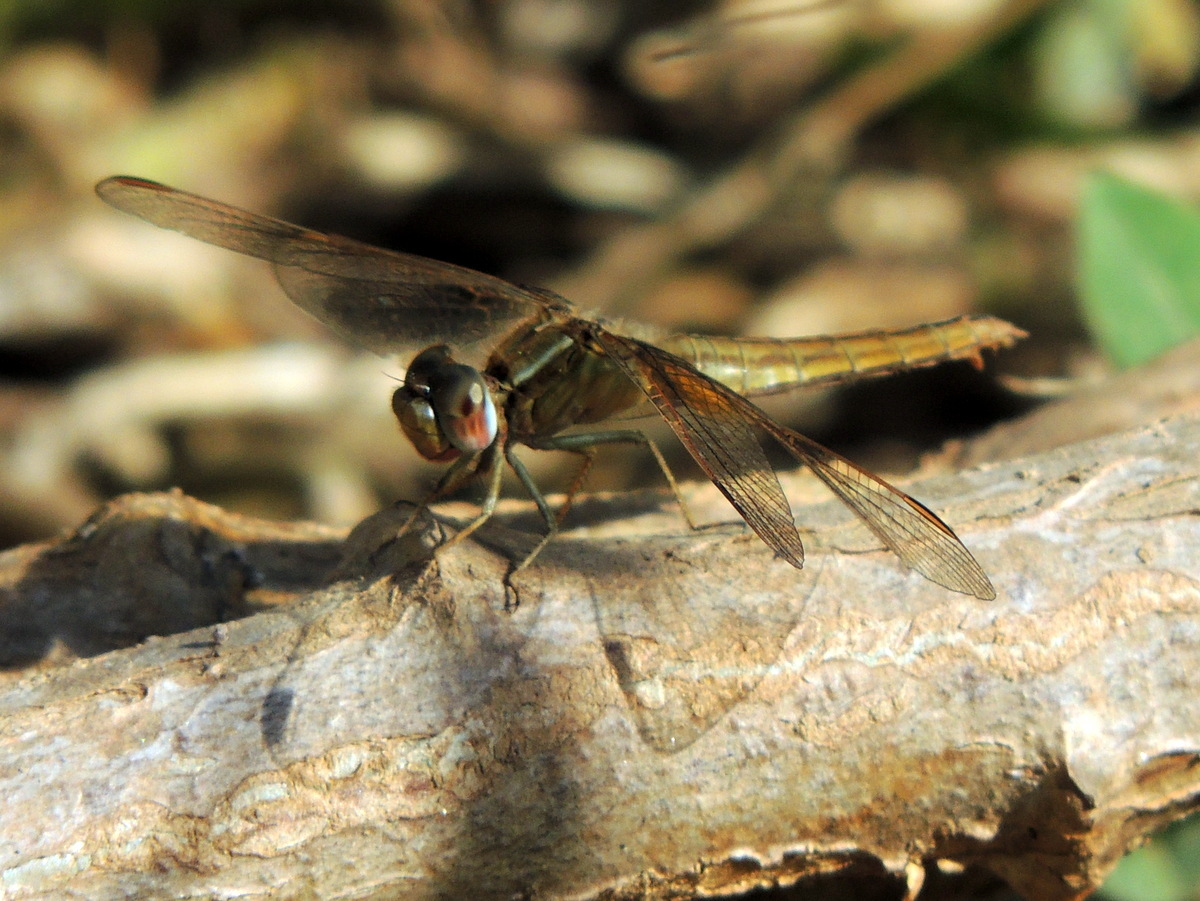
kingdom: Animalia
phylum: Arthropoda
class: Insecta
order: Odonata
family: Libellulidae
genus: Crocothemis
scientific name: Crocothemis erythraea
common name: Scarlet dragonfly
